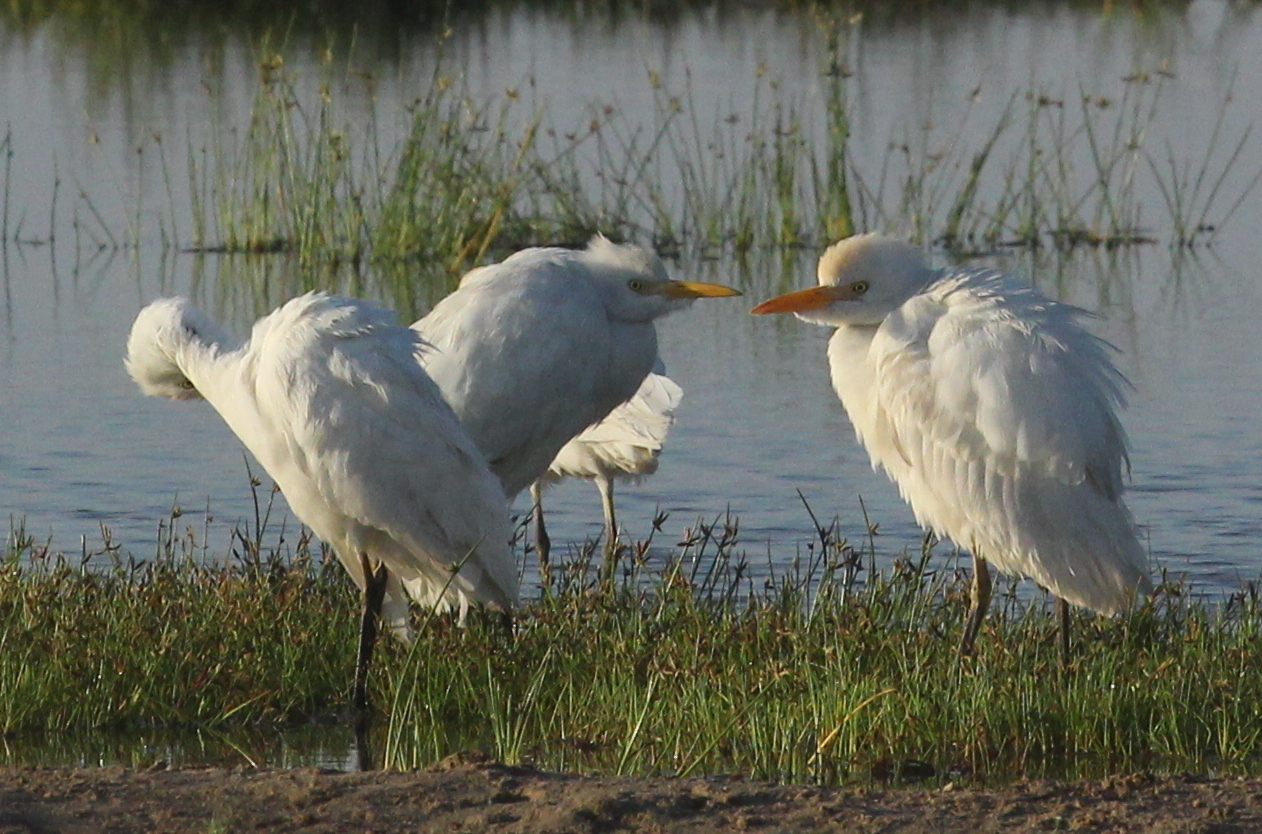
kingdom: Animalia
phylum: Chordata
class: Aves
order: Pelecaniformes
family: Ardeidae
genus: Bubulcus
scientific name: Bubulcus ibis
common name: Cattle egret
